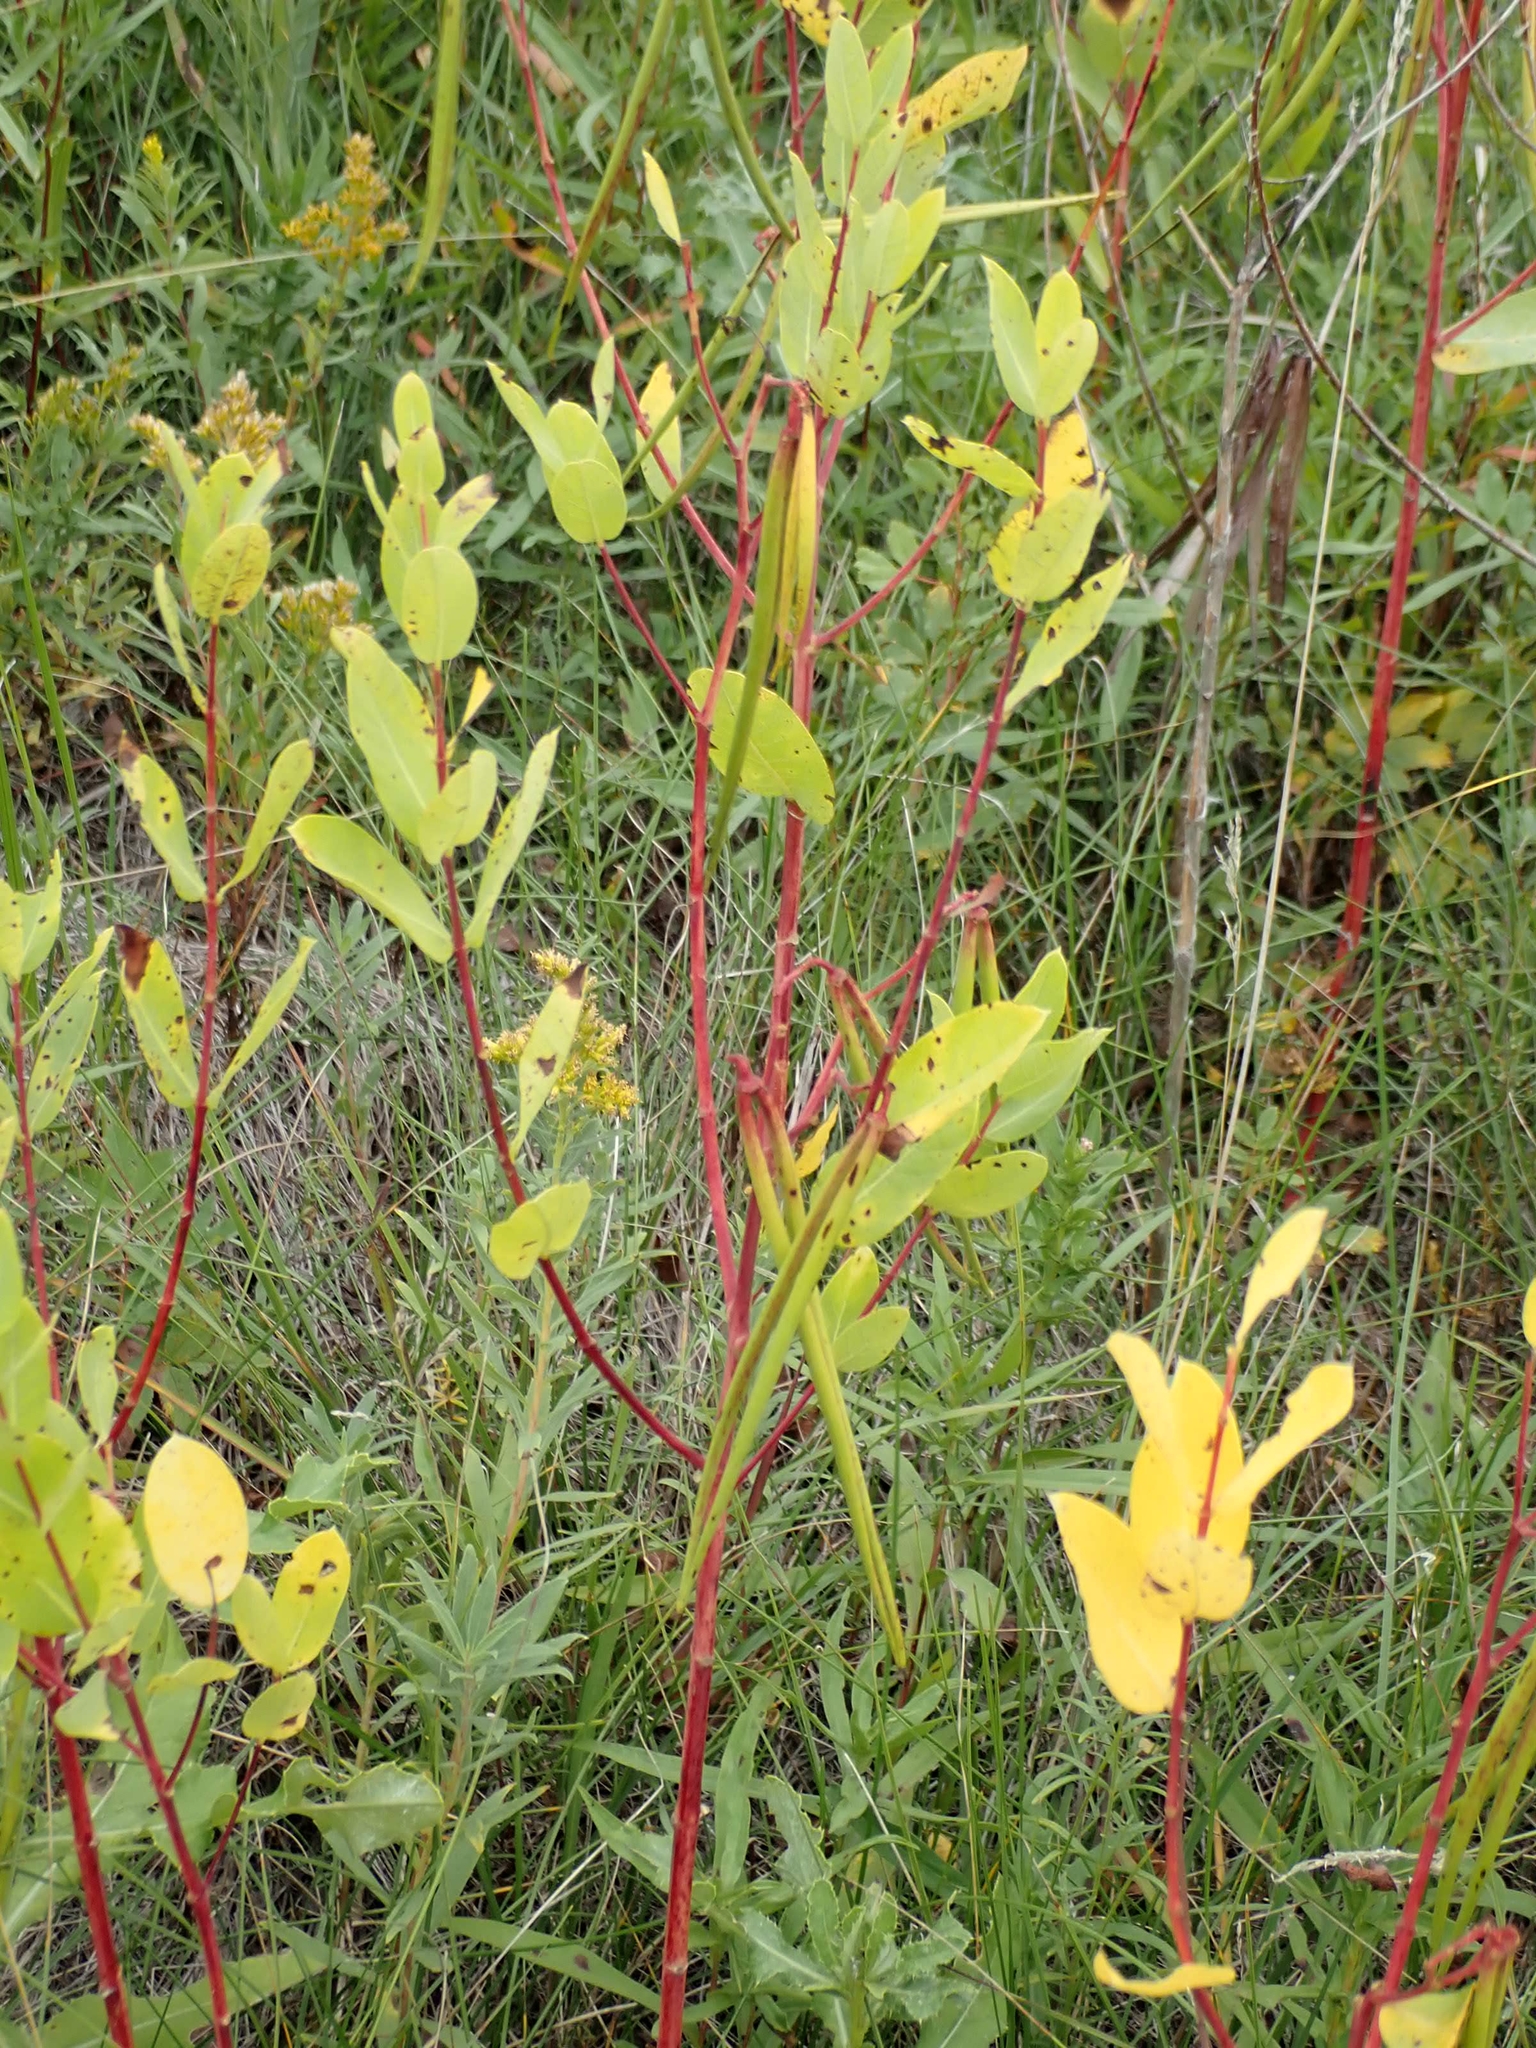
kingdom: Plantae
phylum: Tracheophyta
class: Magnoliopsida
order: Gentianales
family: Apocynaceae
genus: Apocynum
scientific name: Apocynum cannabinum
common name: Hemp dogbane
